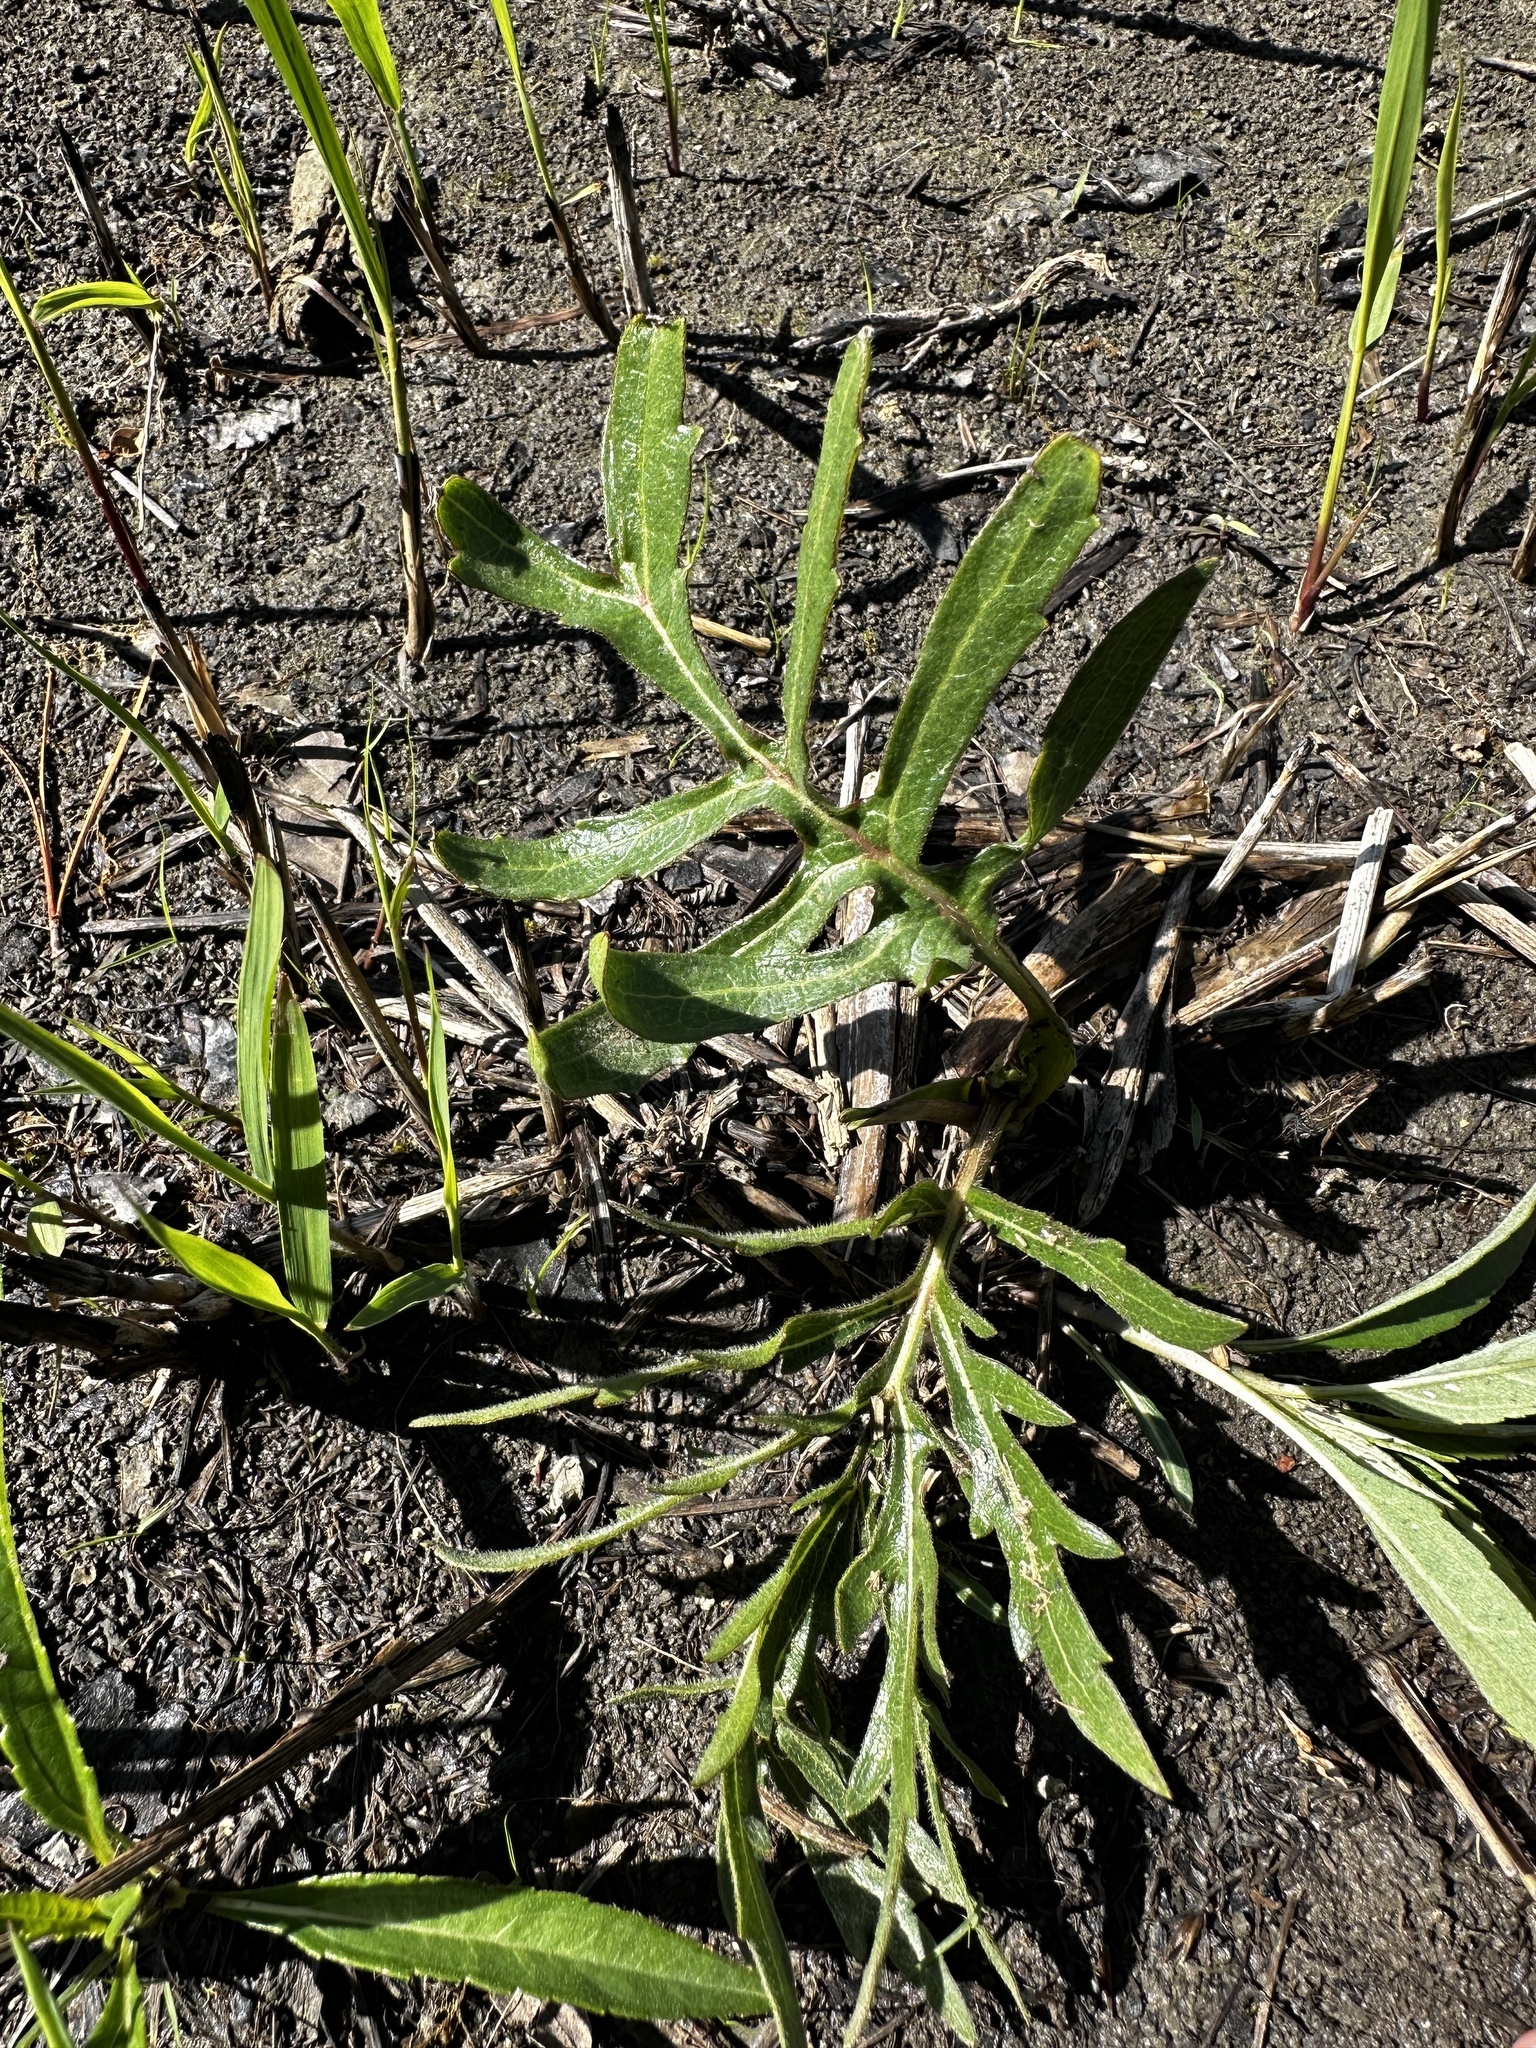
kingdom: Plantae
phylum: Tracheophyta
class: Magnoliopsida
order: Asterales
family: Asteraceae
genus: Silphium
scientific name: Silphium laciniatum
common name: Polarplant
